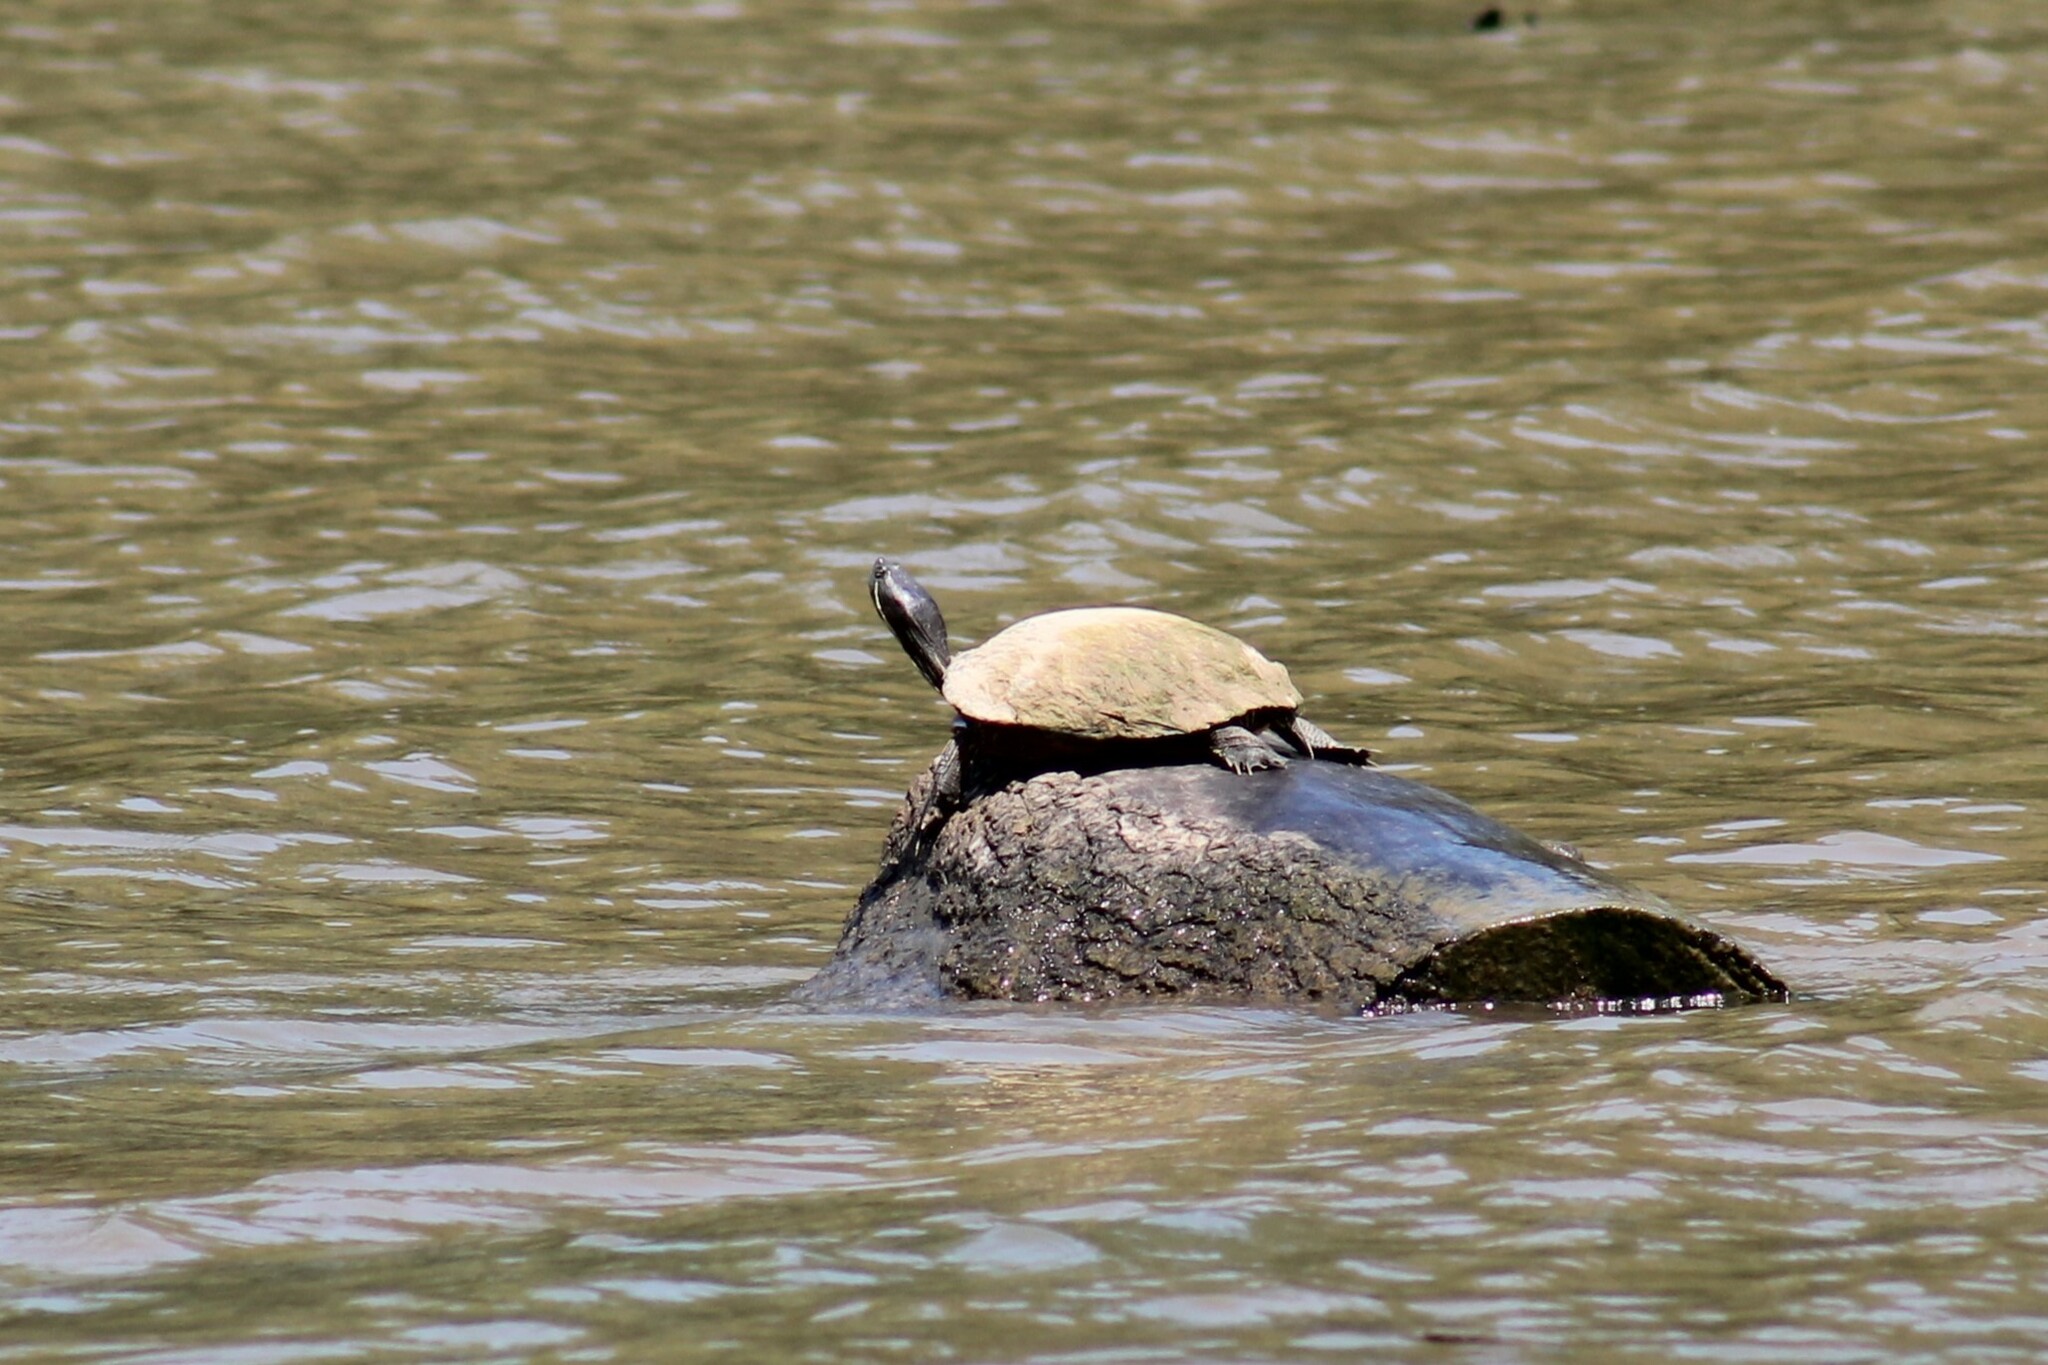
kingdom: Animalia
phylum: Chordata
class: Testudines
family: Emydidae
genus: Trachemys
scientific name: Trachemys scripta
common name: Slider
